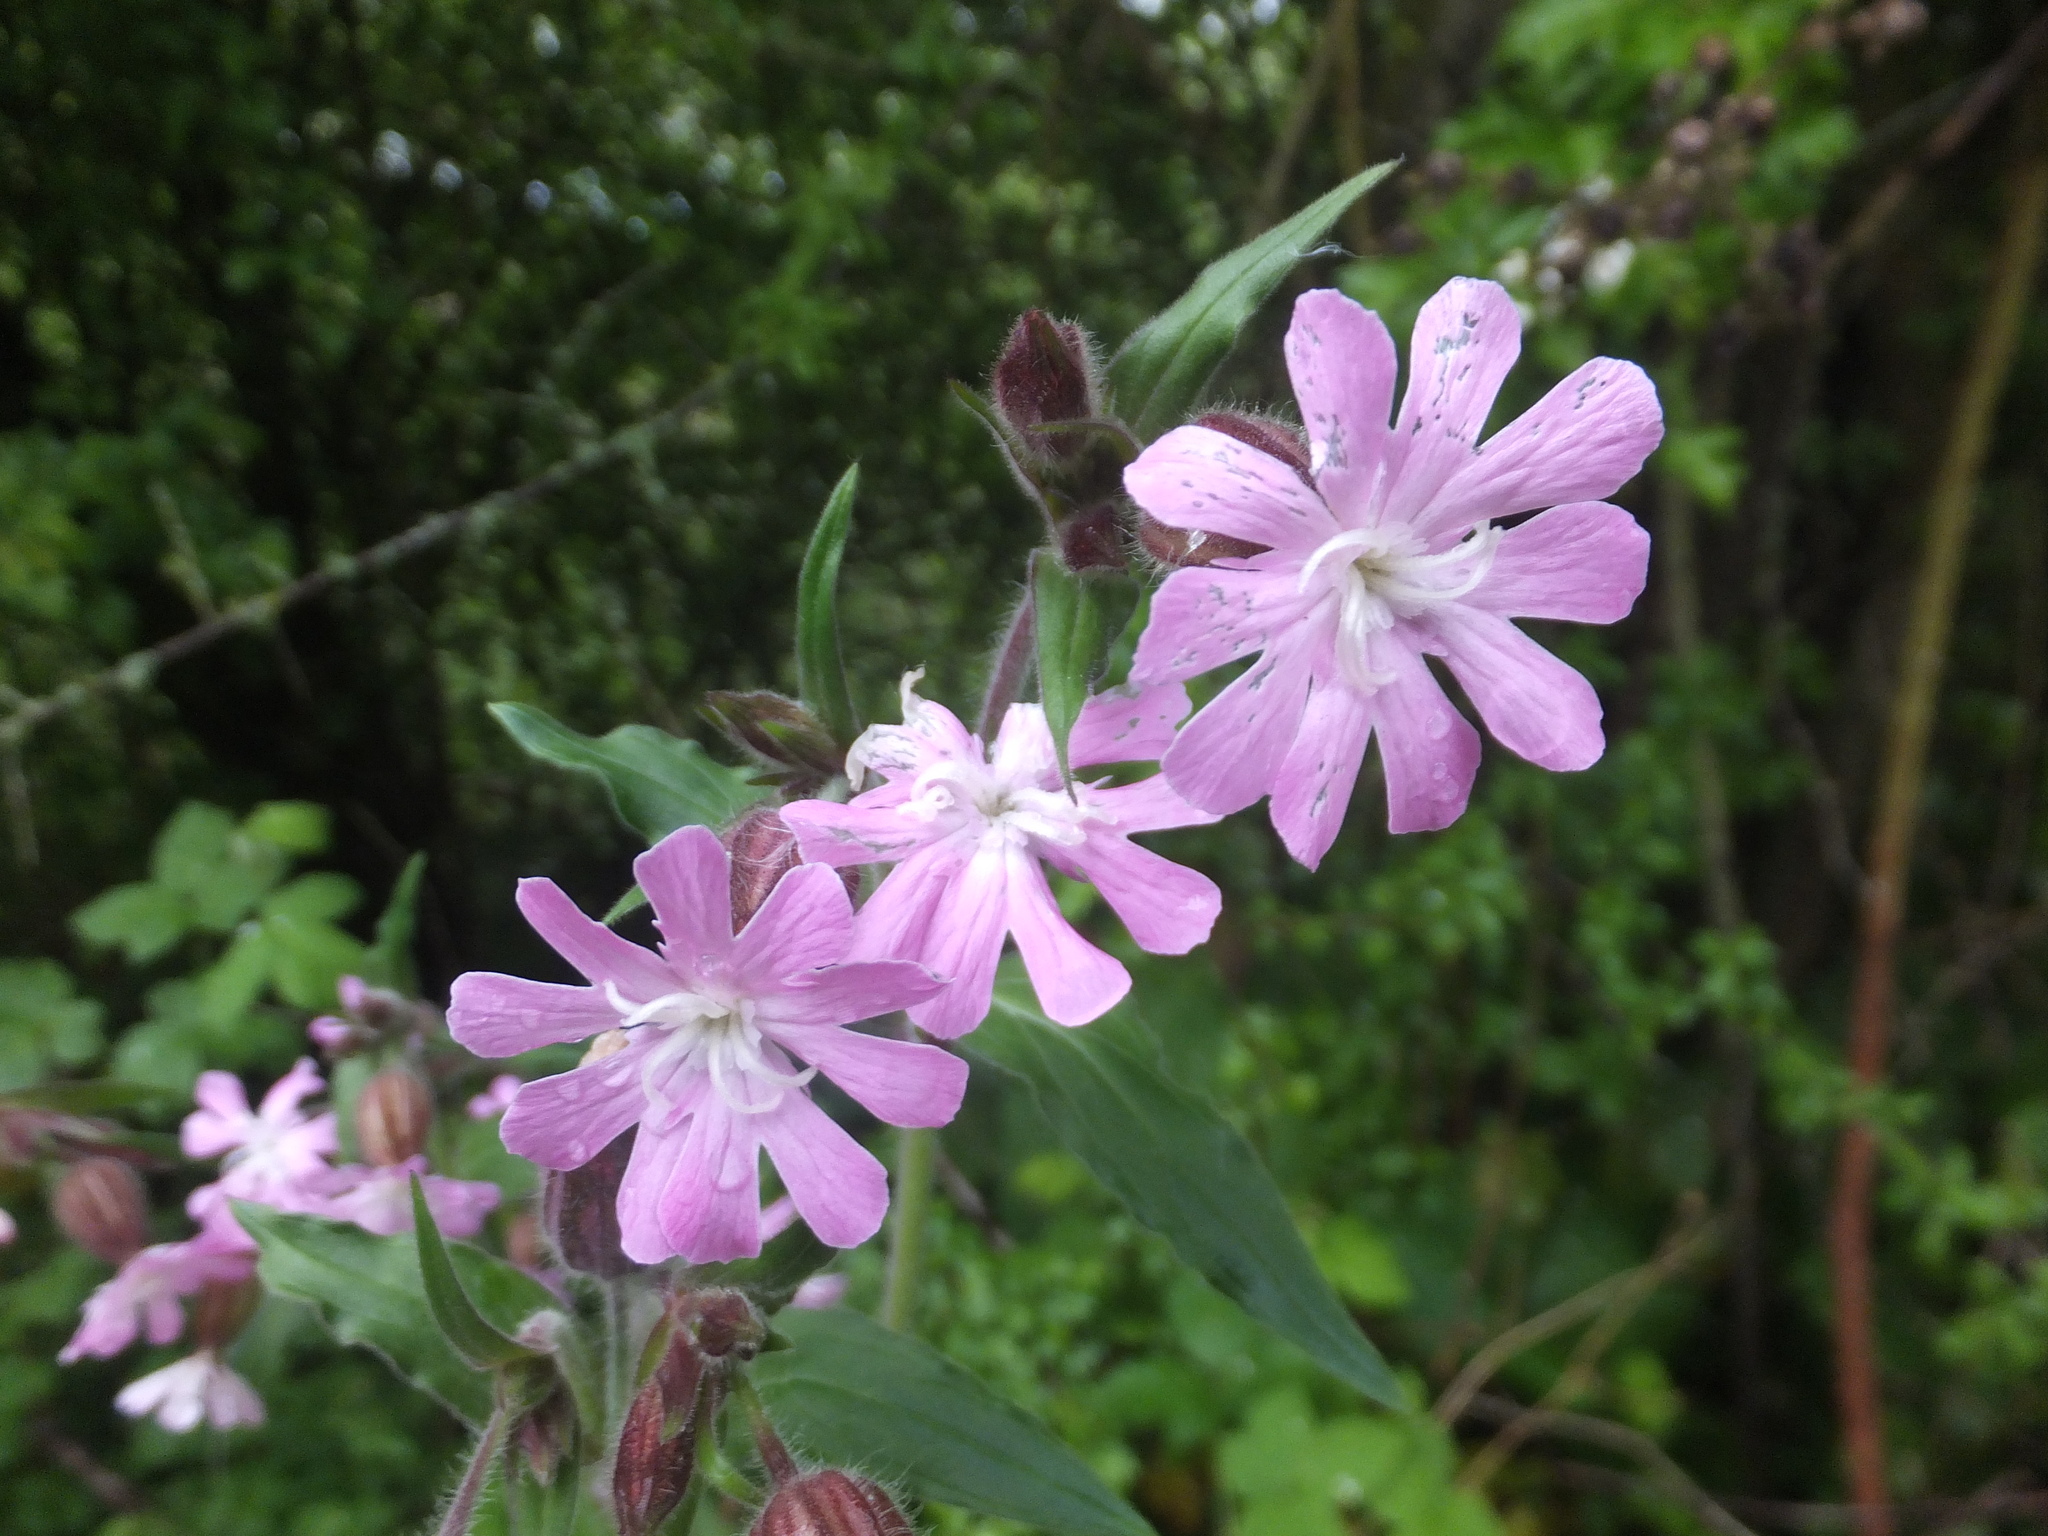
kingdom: Plantae
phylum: Tracheophyta
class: Magnoliopsida
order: Caryophyllales
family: Caryophyllaceae
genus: Silene
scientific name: Silene dioica
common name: Red campion
